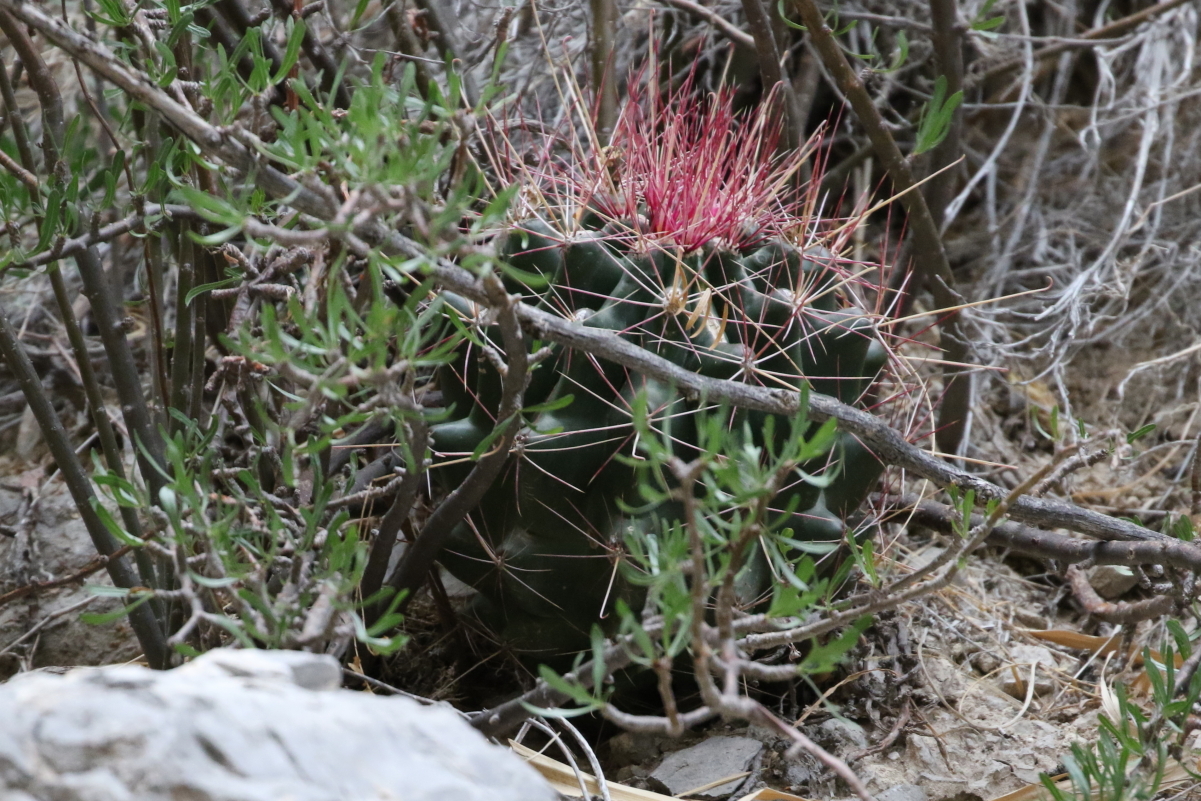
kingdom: Plantae
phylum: Tracheophyta
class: Magnoliopsida
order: Caryophyllales
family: Cactaceae
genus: Bisnaga
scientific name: Bisnaga hamatacantha
